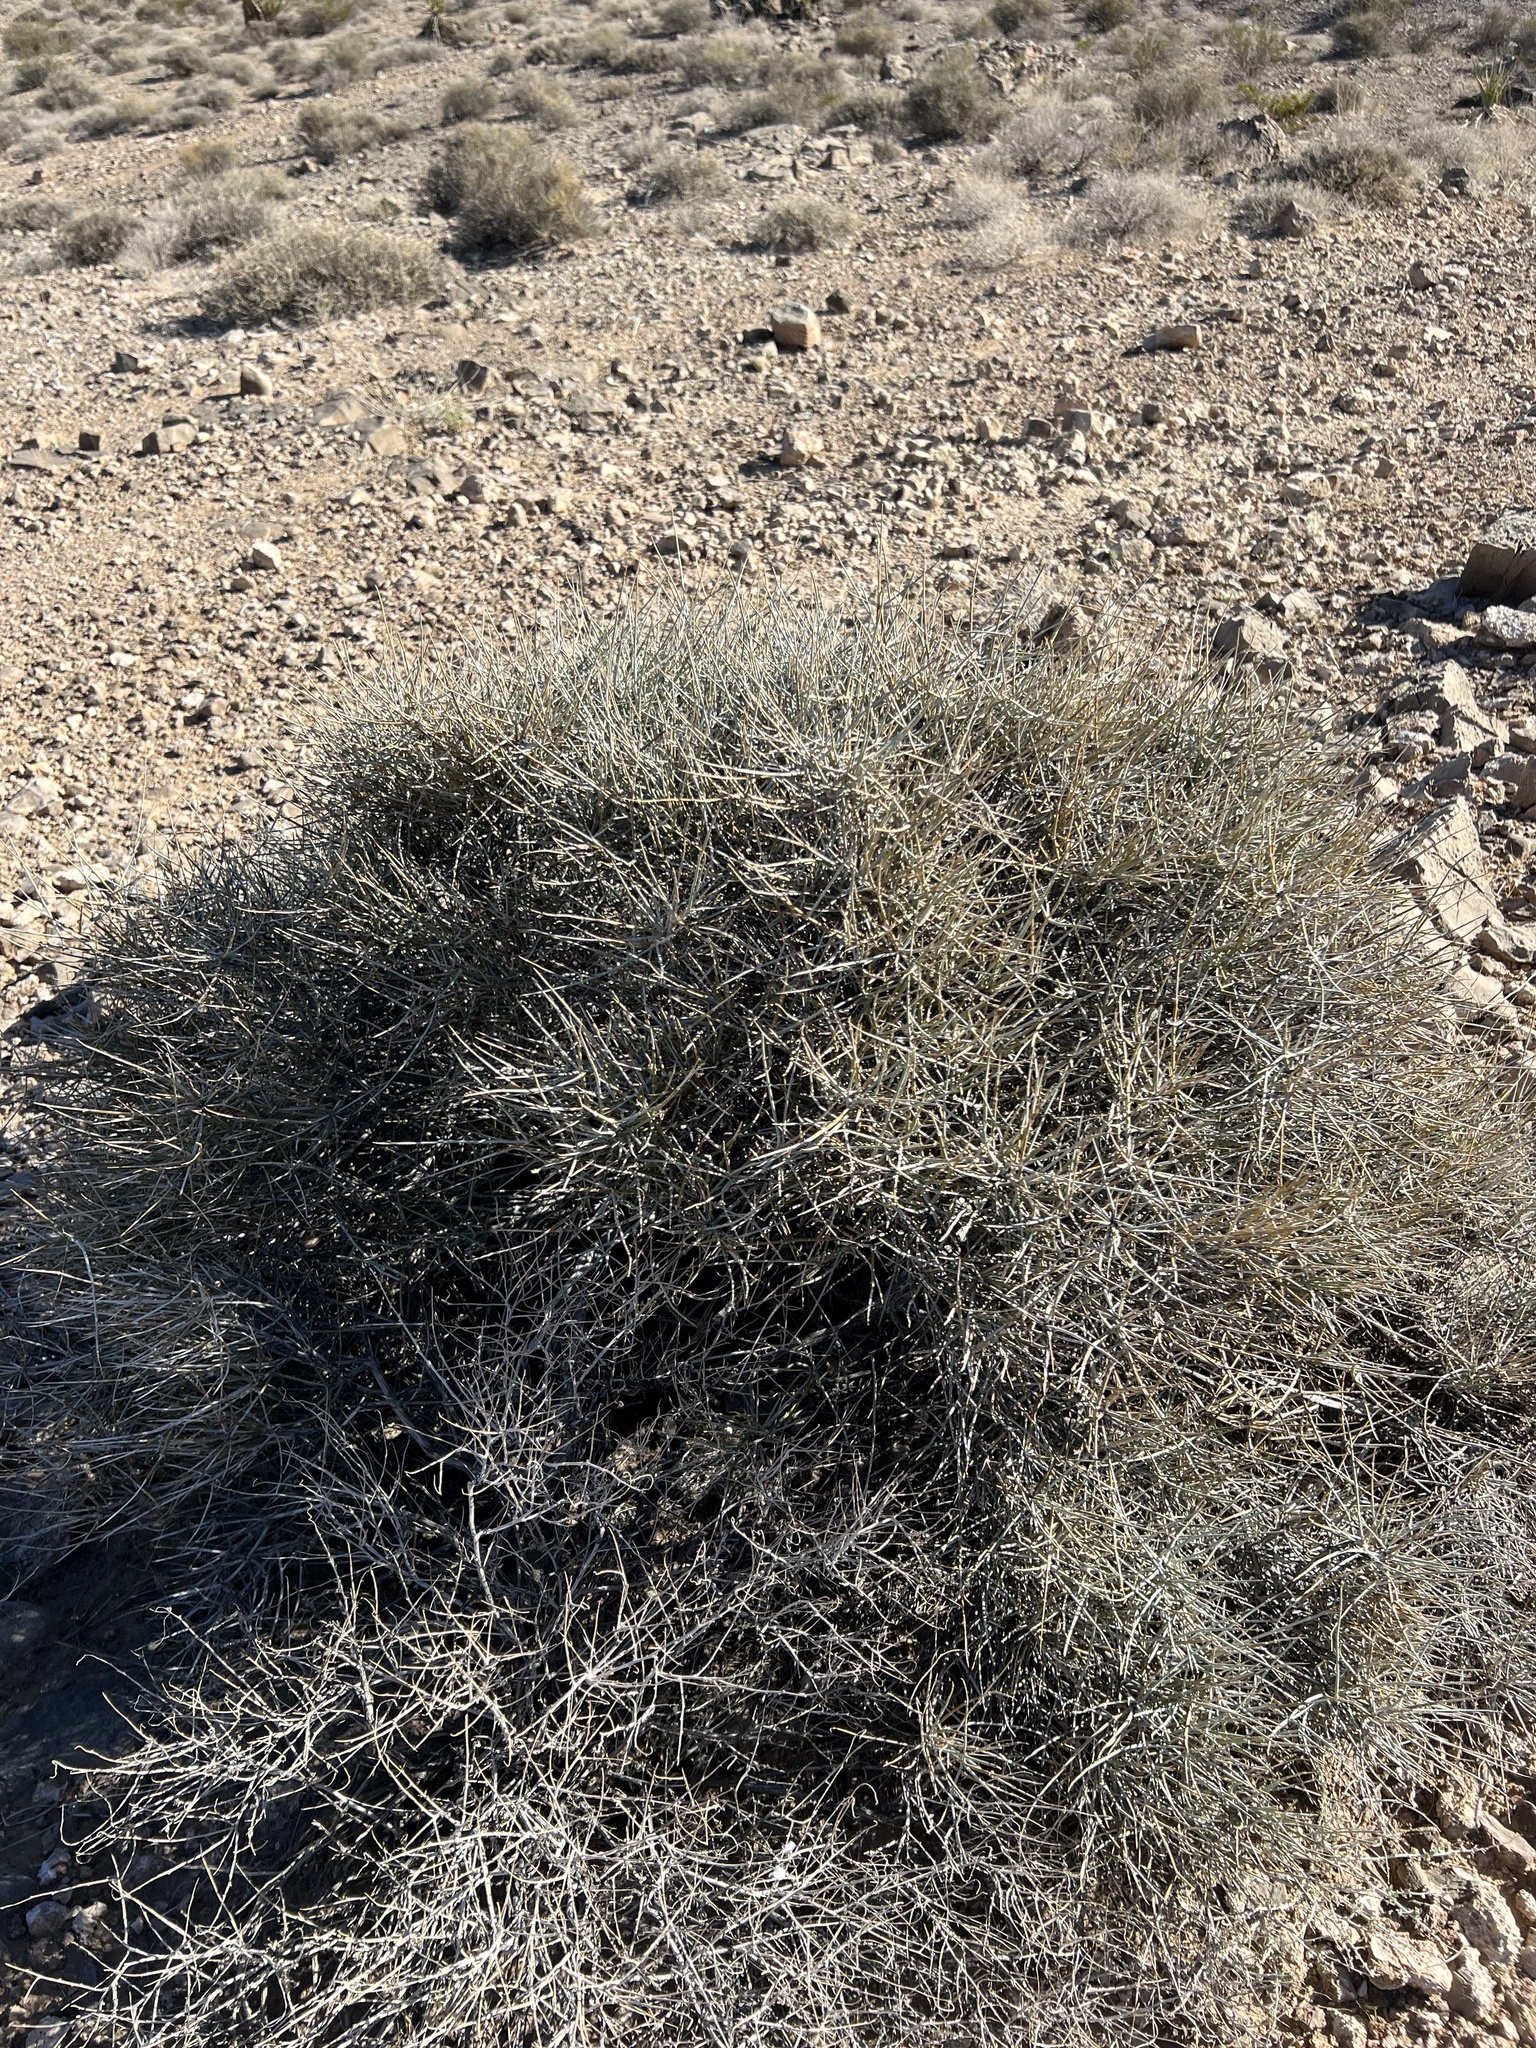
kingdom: Plantae
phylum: Tracheophyta
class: Gnetopsida
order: Ephedrales
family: Ephedraceae
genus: Ephedra
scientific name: Ephedra nevadensis
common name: Gray ephedra
